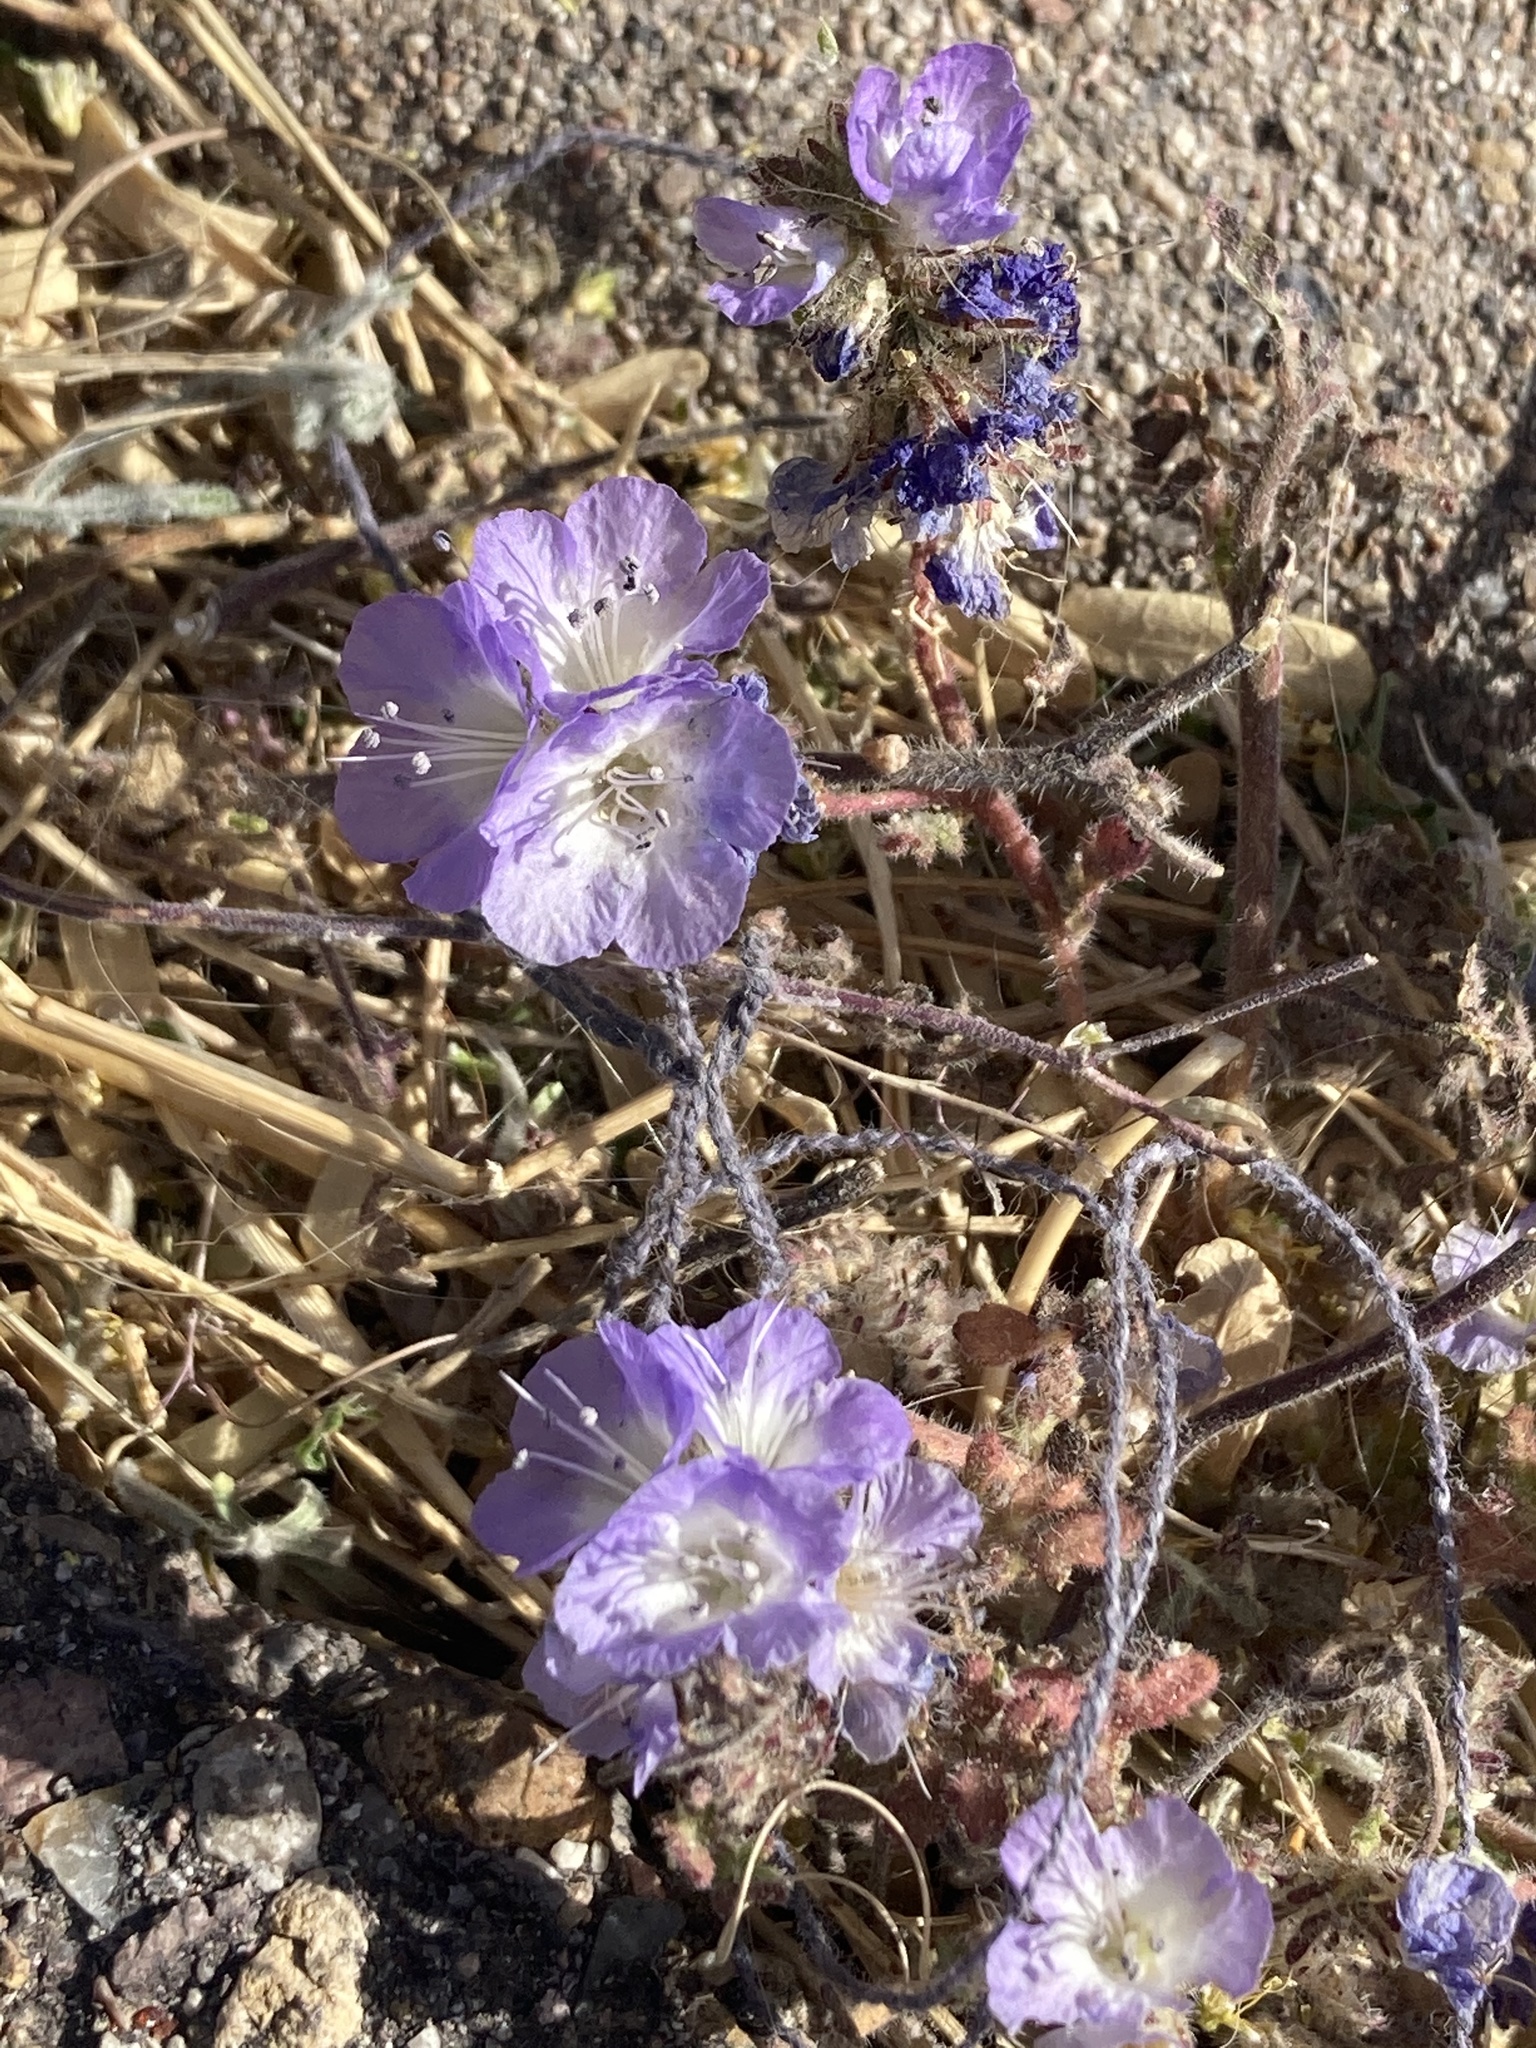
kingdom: Plantae
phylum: Tracheophyta
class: Magnoliopsida
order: Boraginales
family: Hydrophyllaceae
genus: Phacelia
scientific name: Phacelia distans
